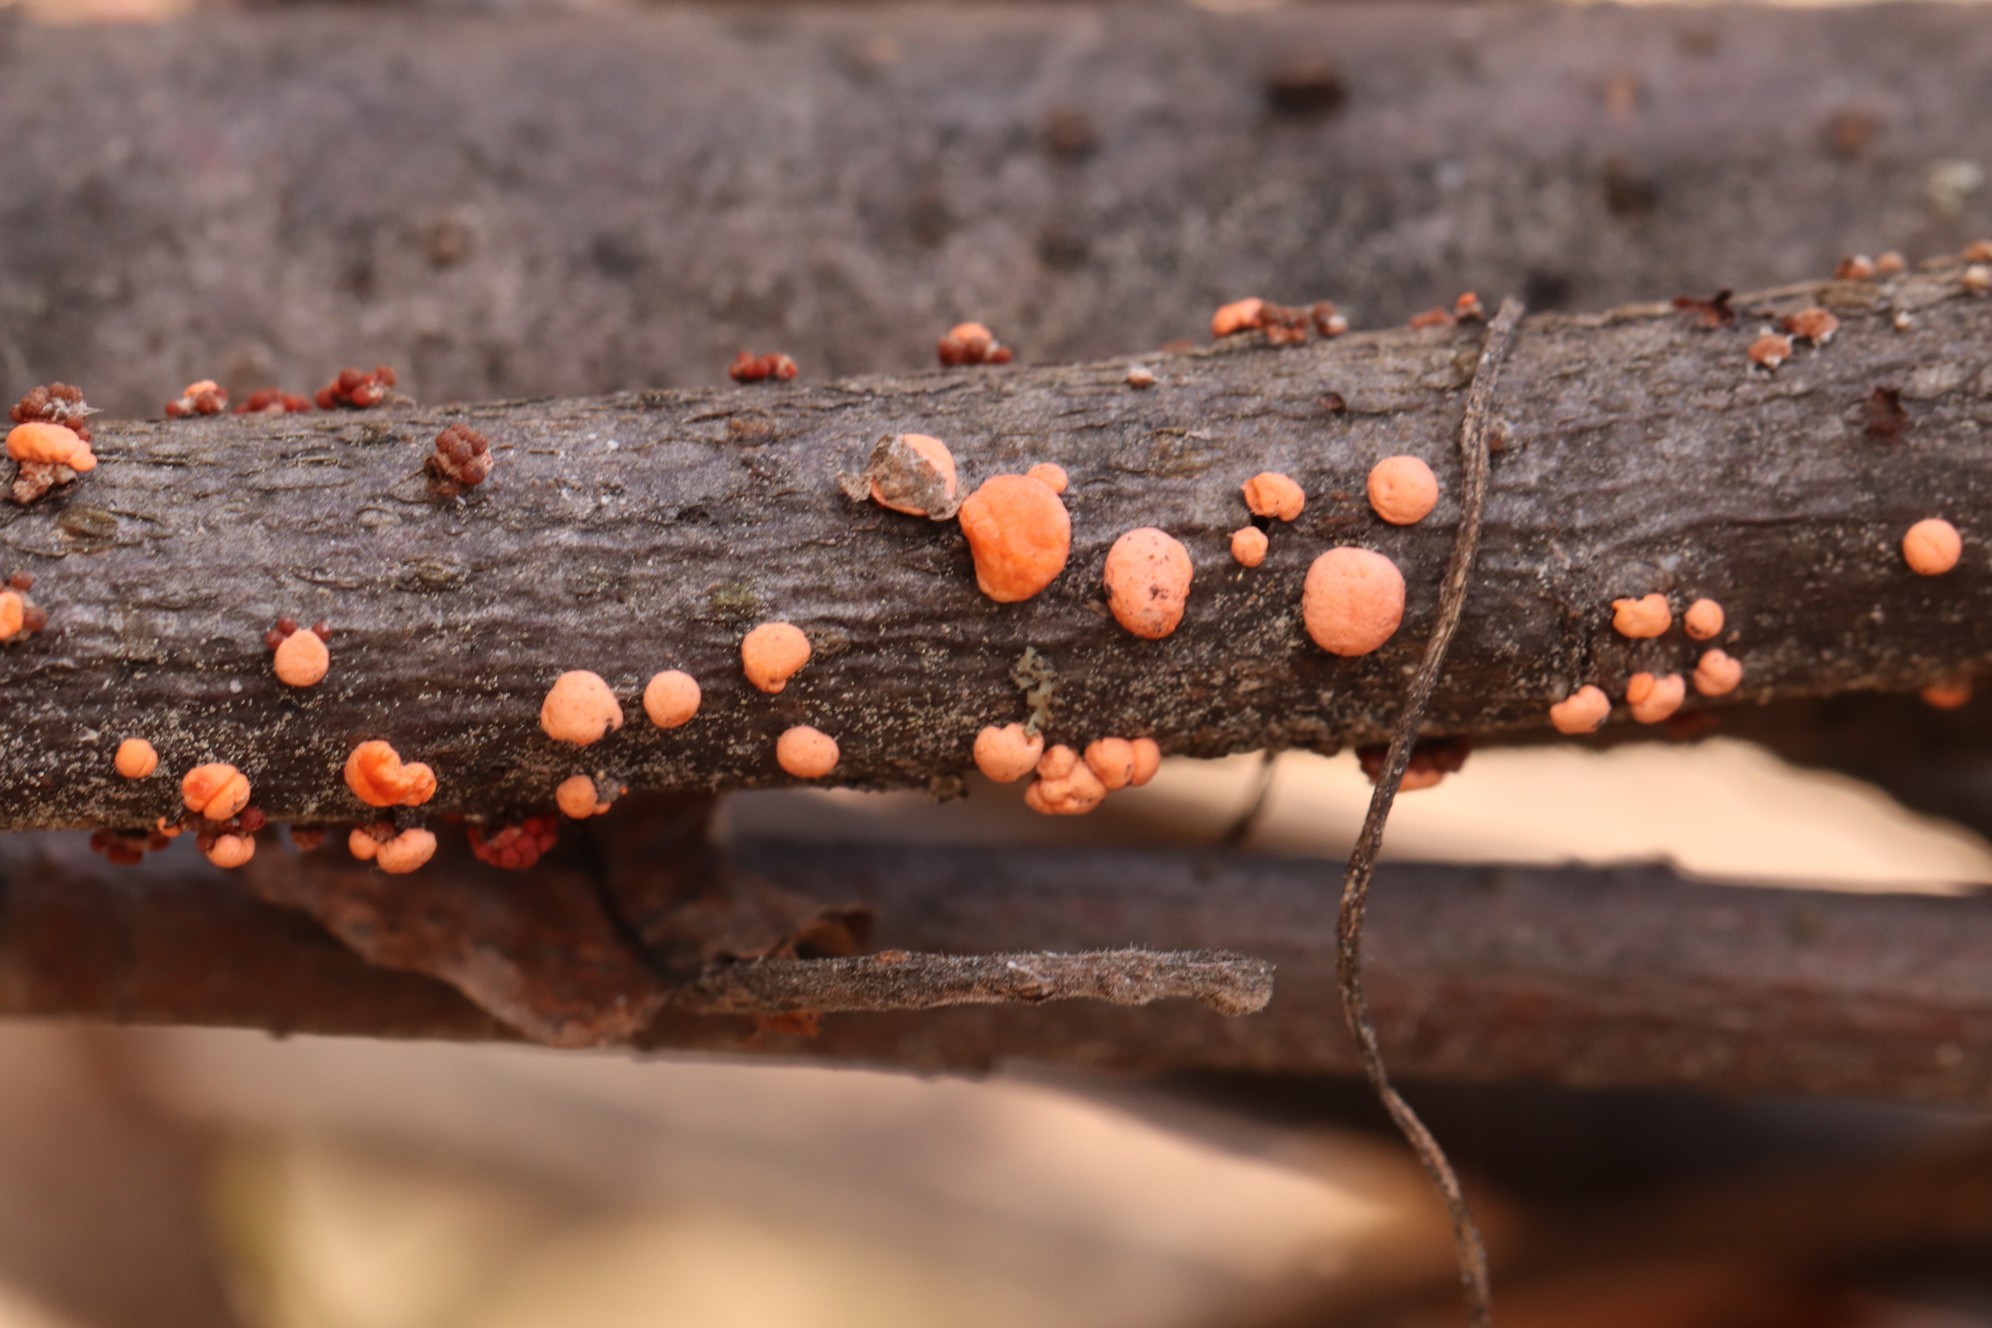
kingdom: Fungi
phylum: Ascomycota
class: Sordariomycetes
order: Hypocreales
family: Nectriaceae
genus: Nectria
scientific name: Nectria cinnabarina
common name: Coral spot
